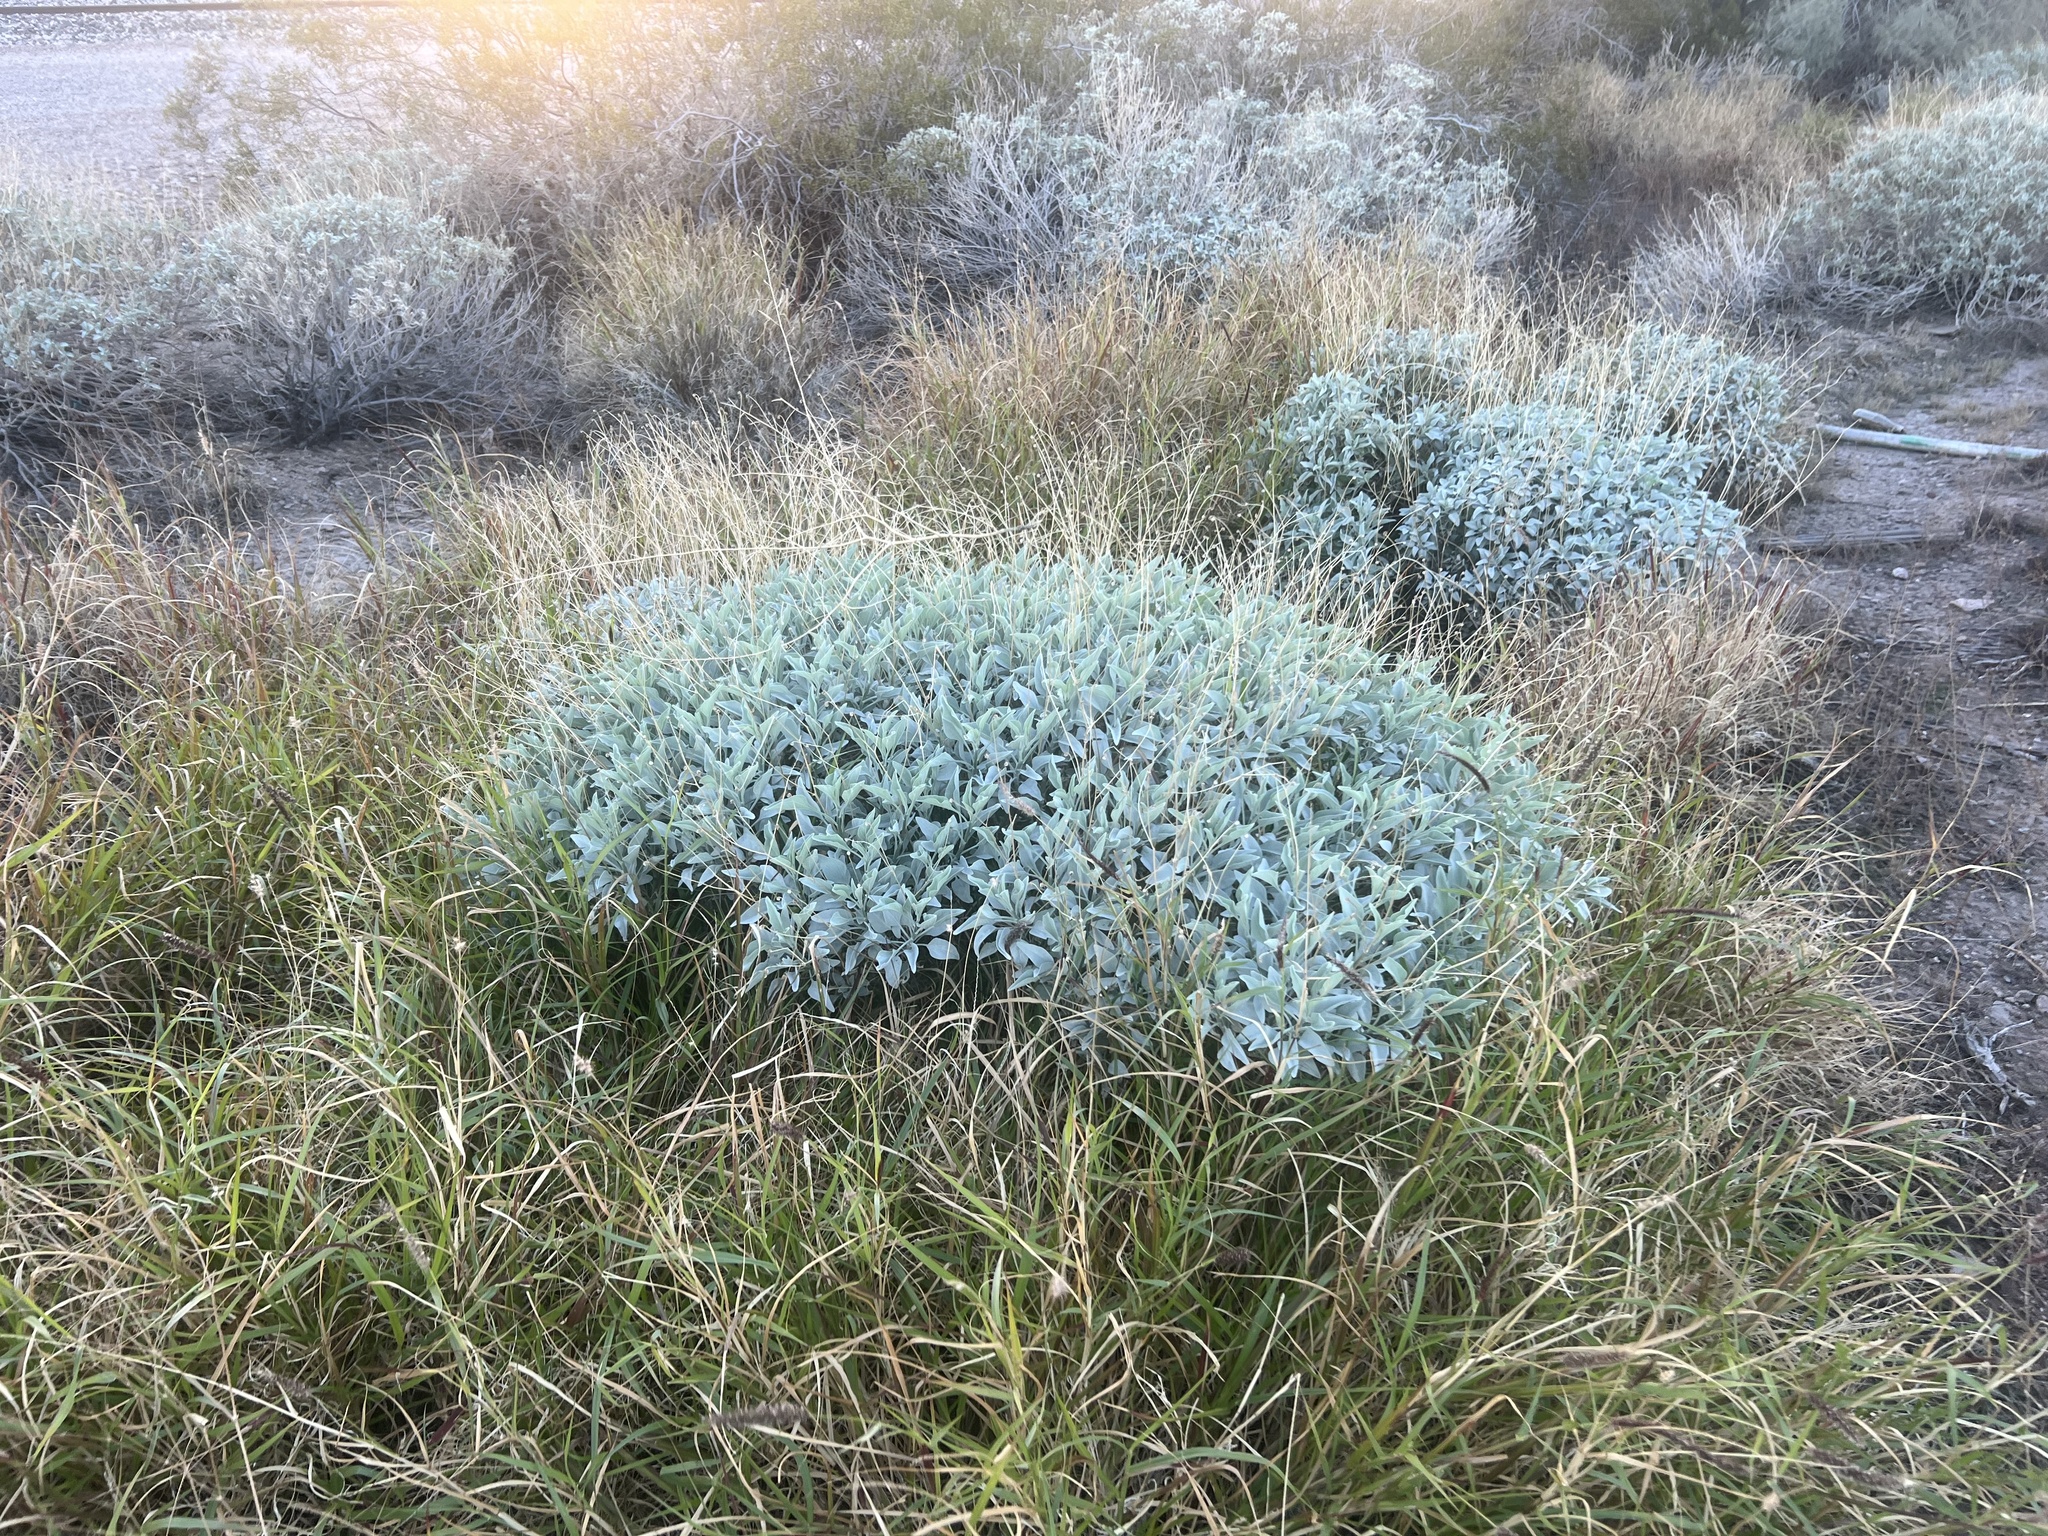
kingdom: Plantae
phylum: Tracheophyta
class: Magnoliopsida
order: Asterales
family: Asteraceae
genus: Encelia
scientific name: Encelia farinosa
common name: Brittlebush
